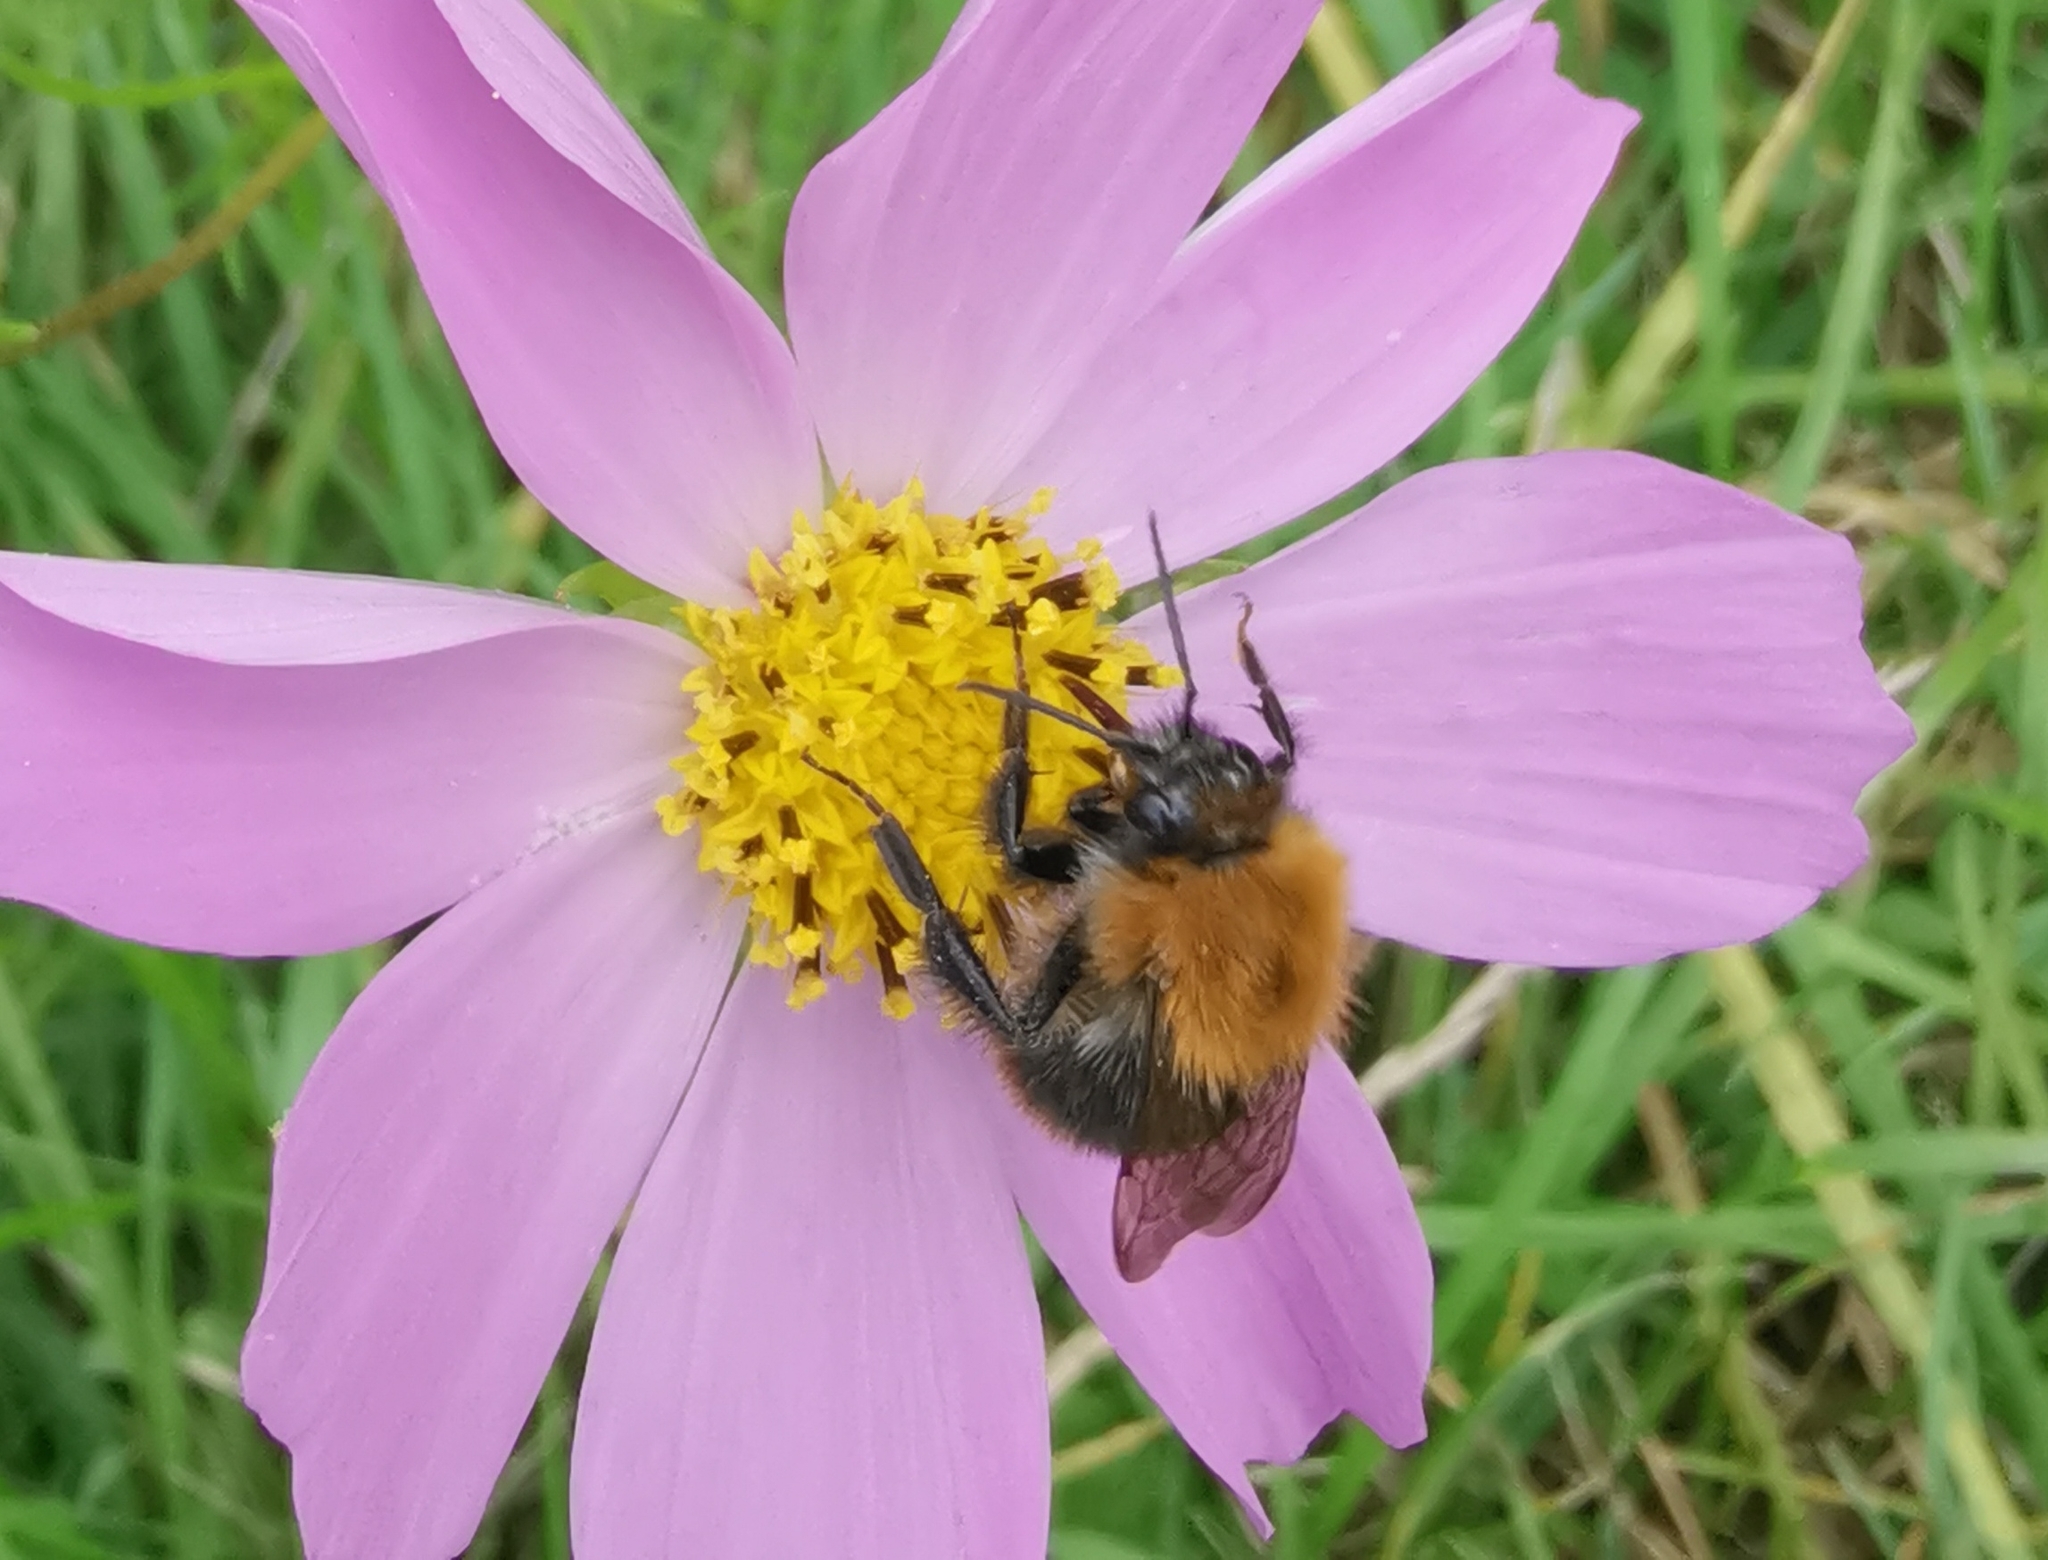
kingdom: Animalia
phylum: Arthropoda
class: Insecta
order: Hymenoptera
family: Apidae
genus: Bombus
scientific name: Bombus pascuorum
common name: Common carder bee
